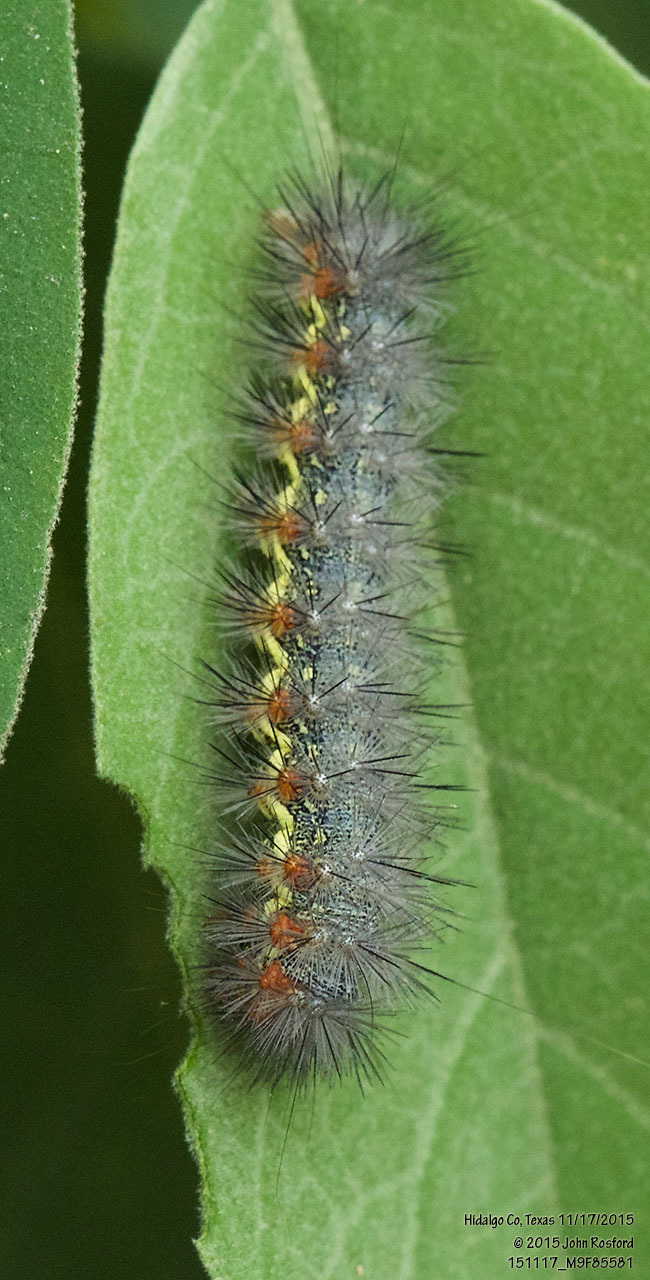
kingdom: Animalia
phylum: Arthropoda
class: Insecta
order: Lepidoptera
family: Erebidae
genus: Hypercompe
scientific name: Hypercompe oslari
